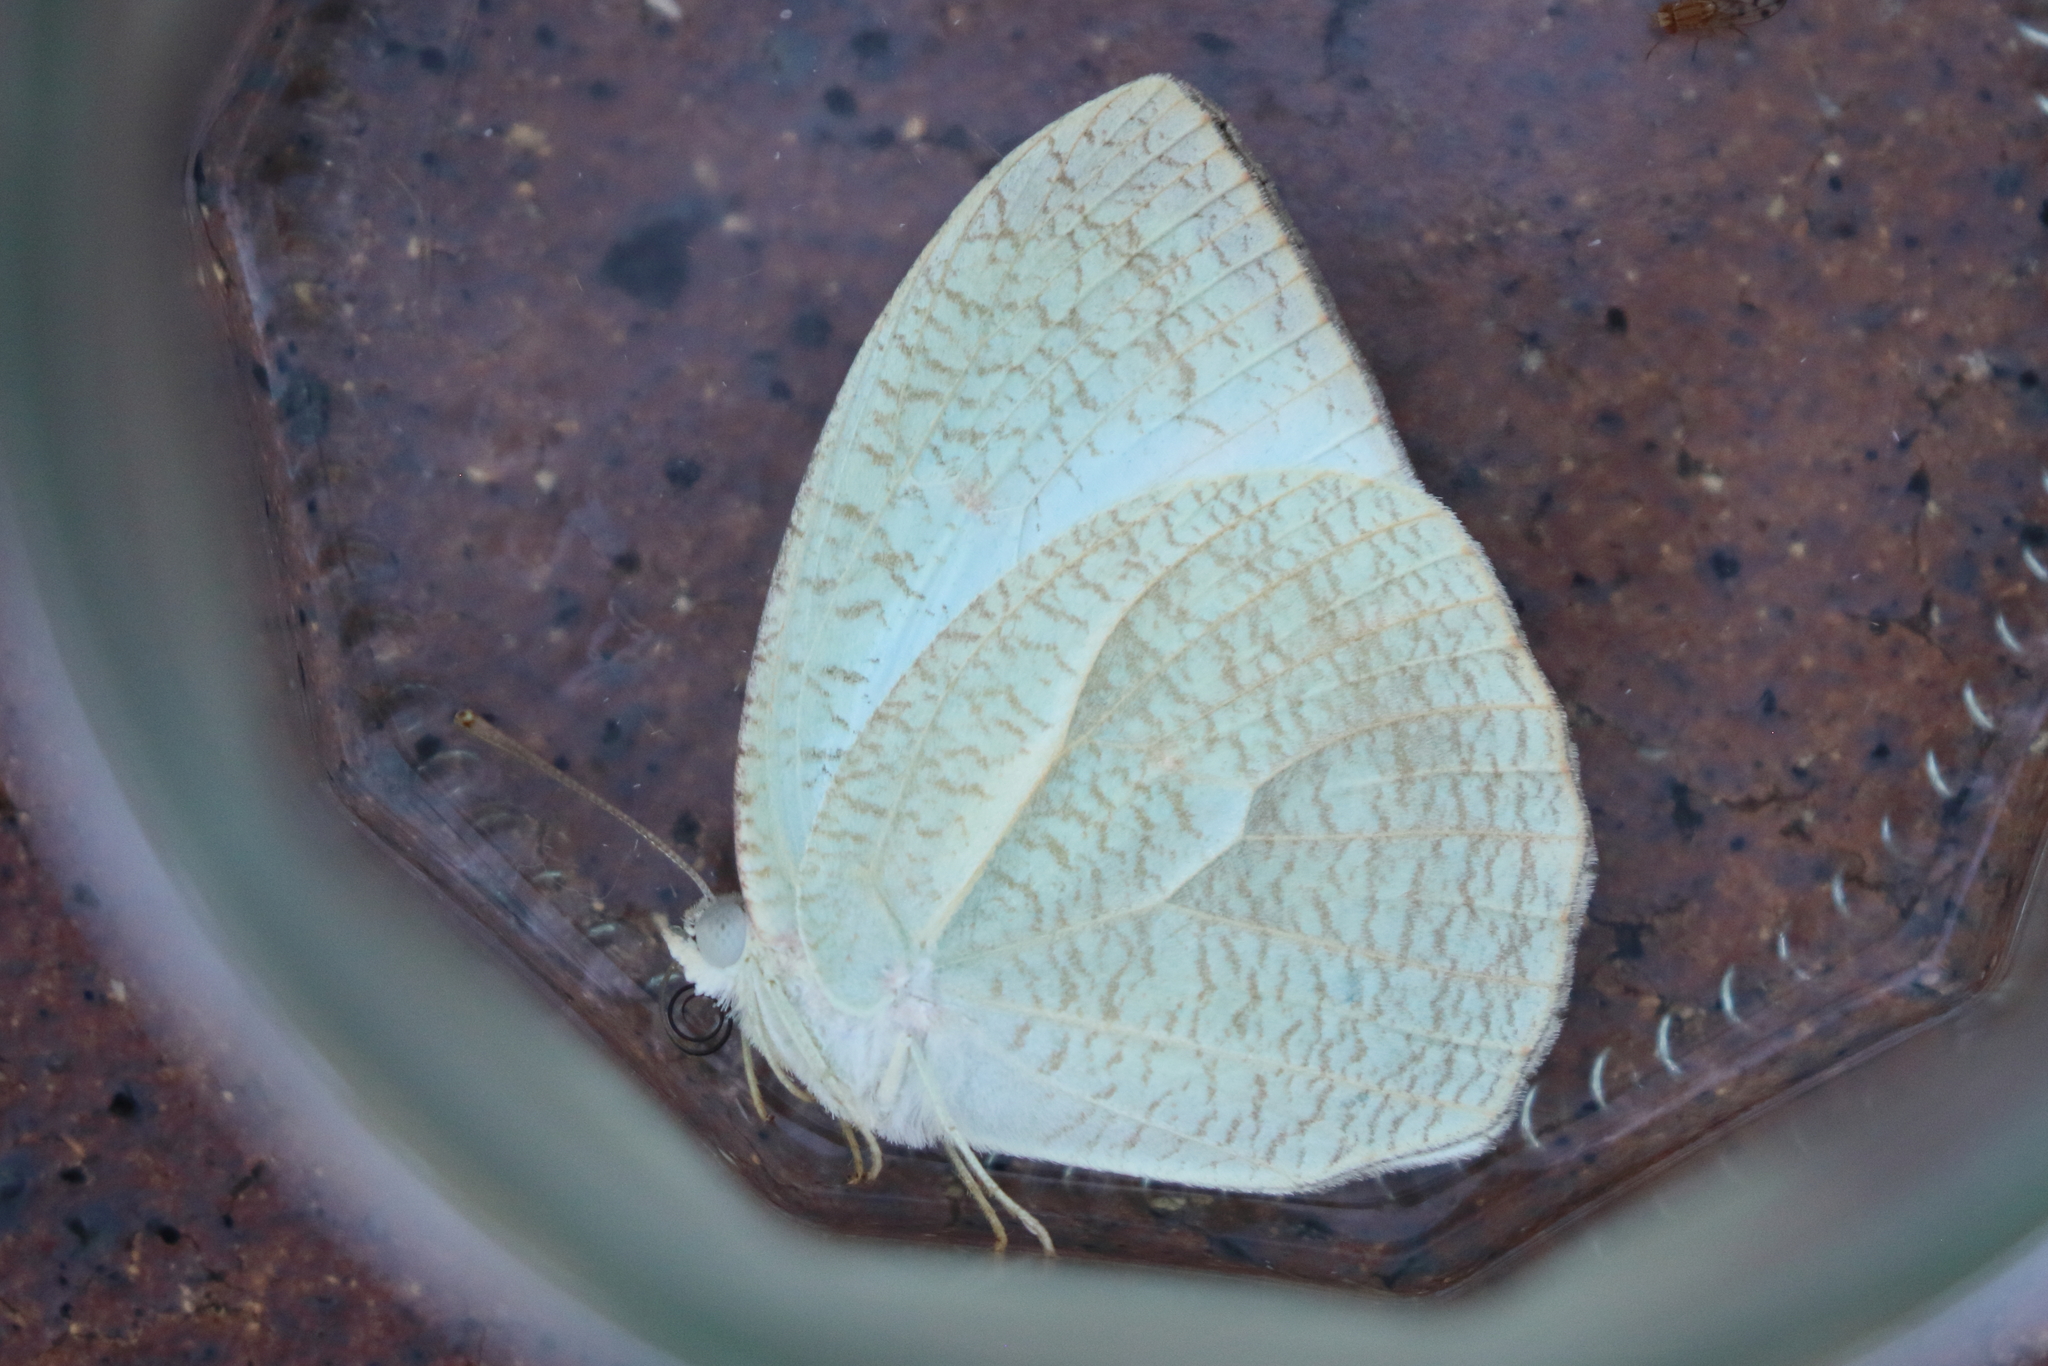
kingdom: Animalia
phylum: Arthropoda
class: Insecta
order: Lepidoptera
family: Pieridae
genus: Catopsilia
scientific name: Catopsilia pyranthe
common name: Mottled emigrant
